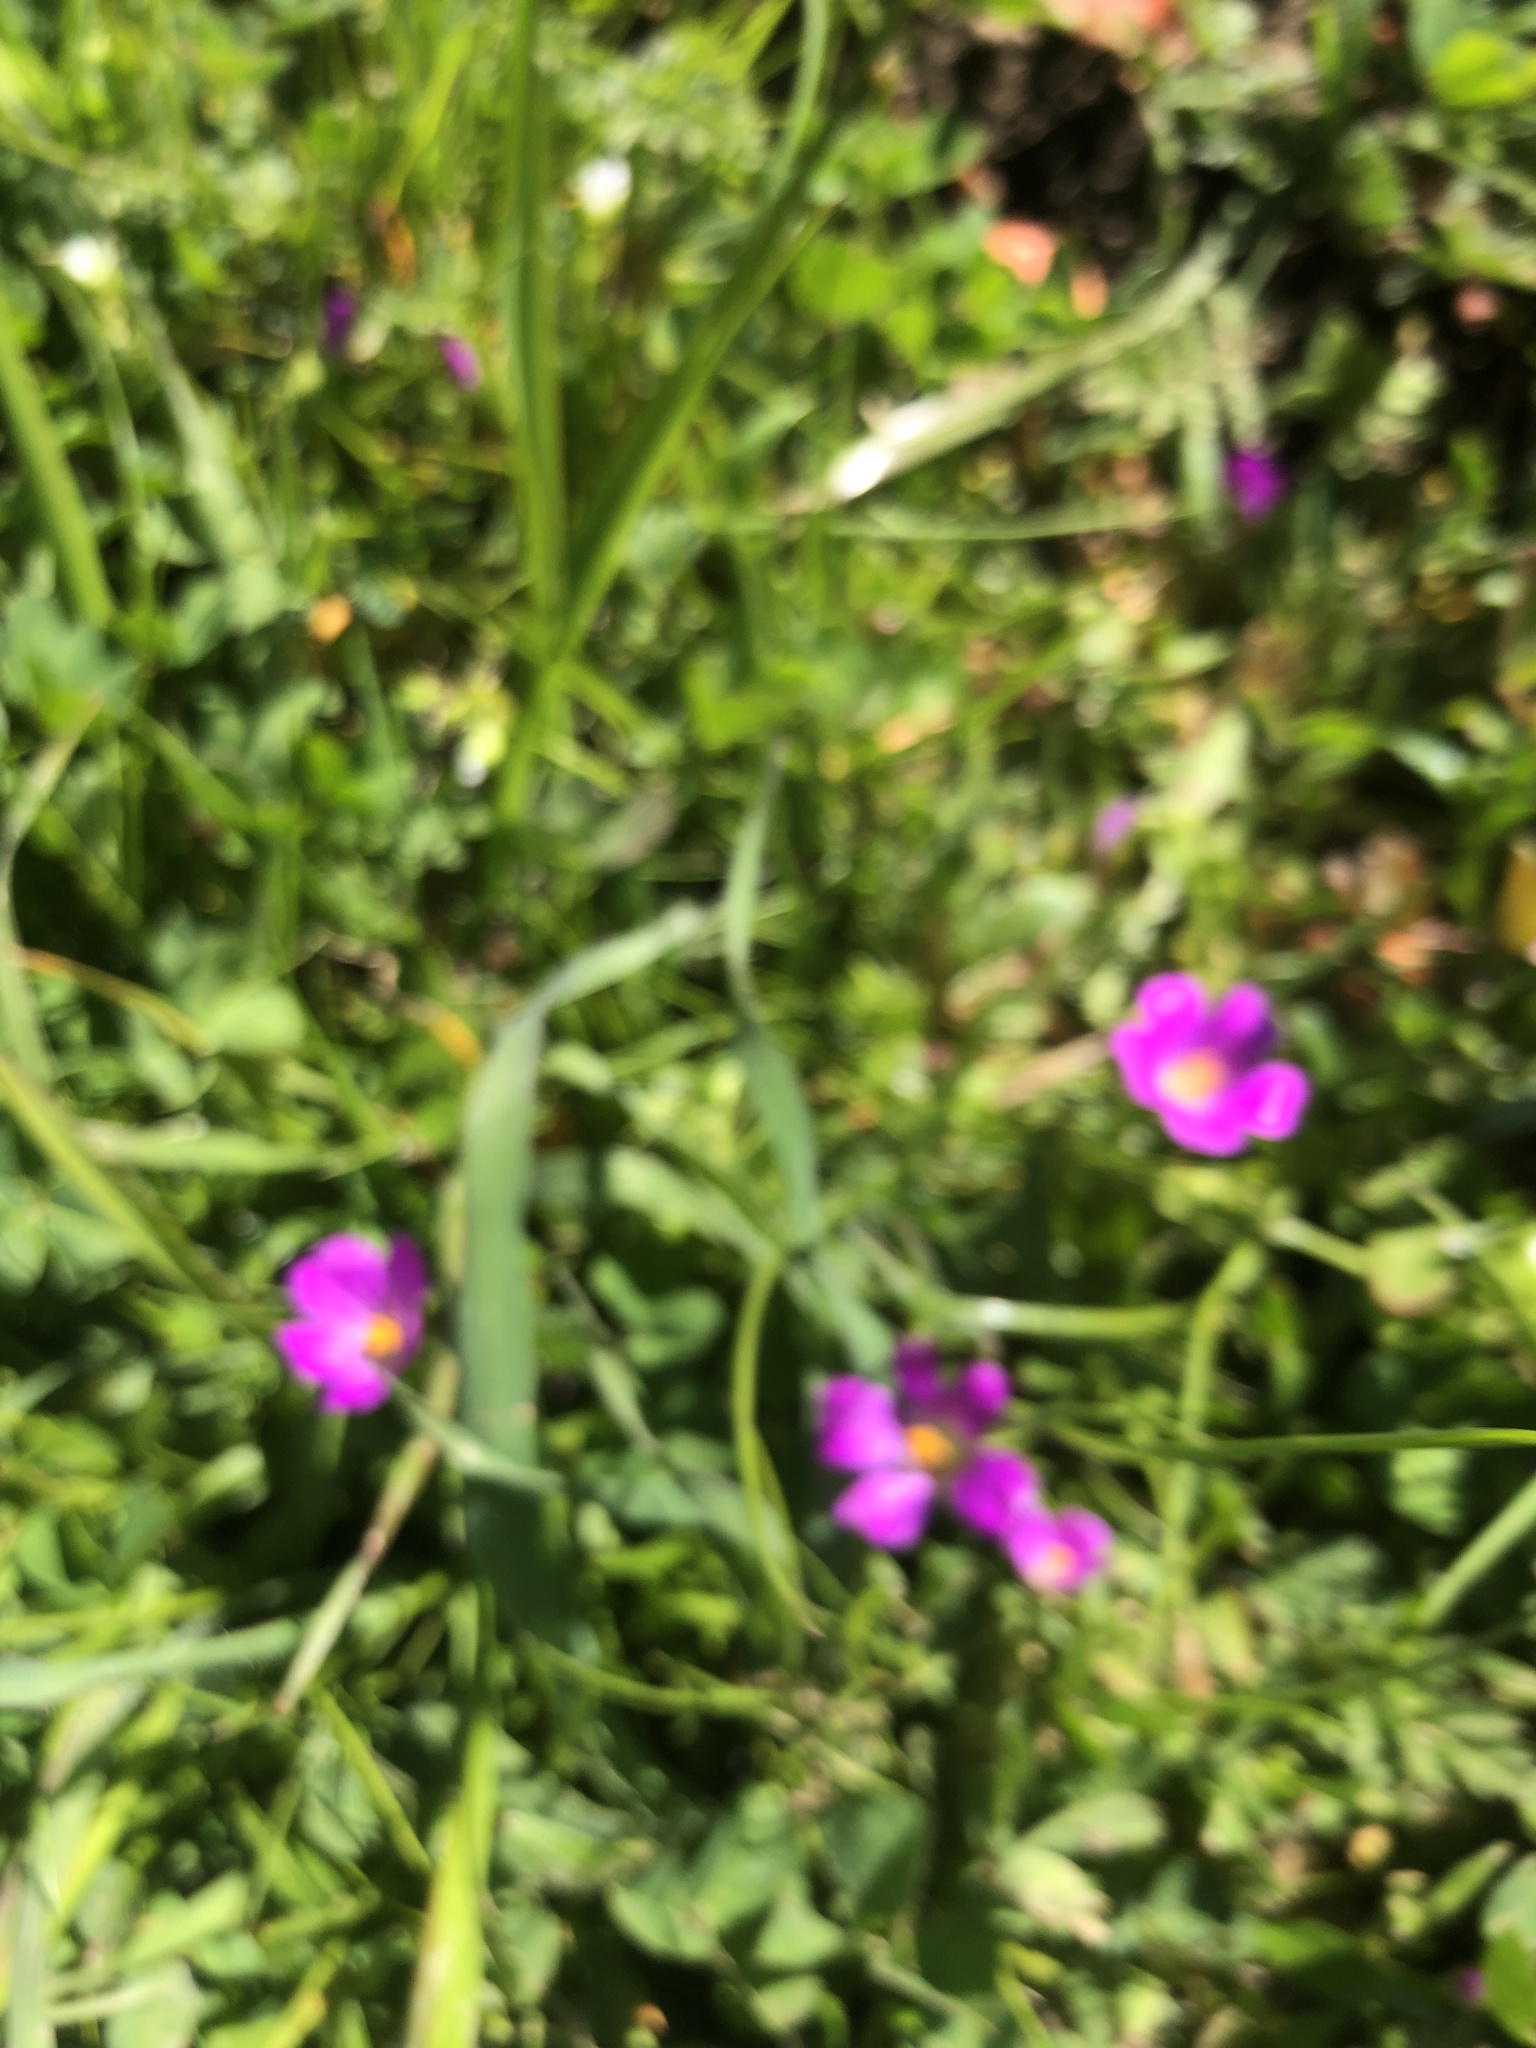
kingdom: Plantae
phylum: Tracheophyta
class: Magnoliopsida
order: Caryophyllales
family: Montiaceae
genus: Calandrinia
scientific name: Calandrinia menziesii
